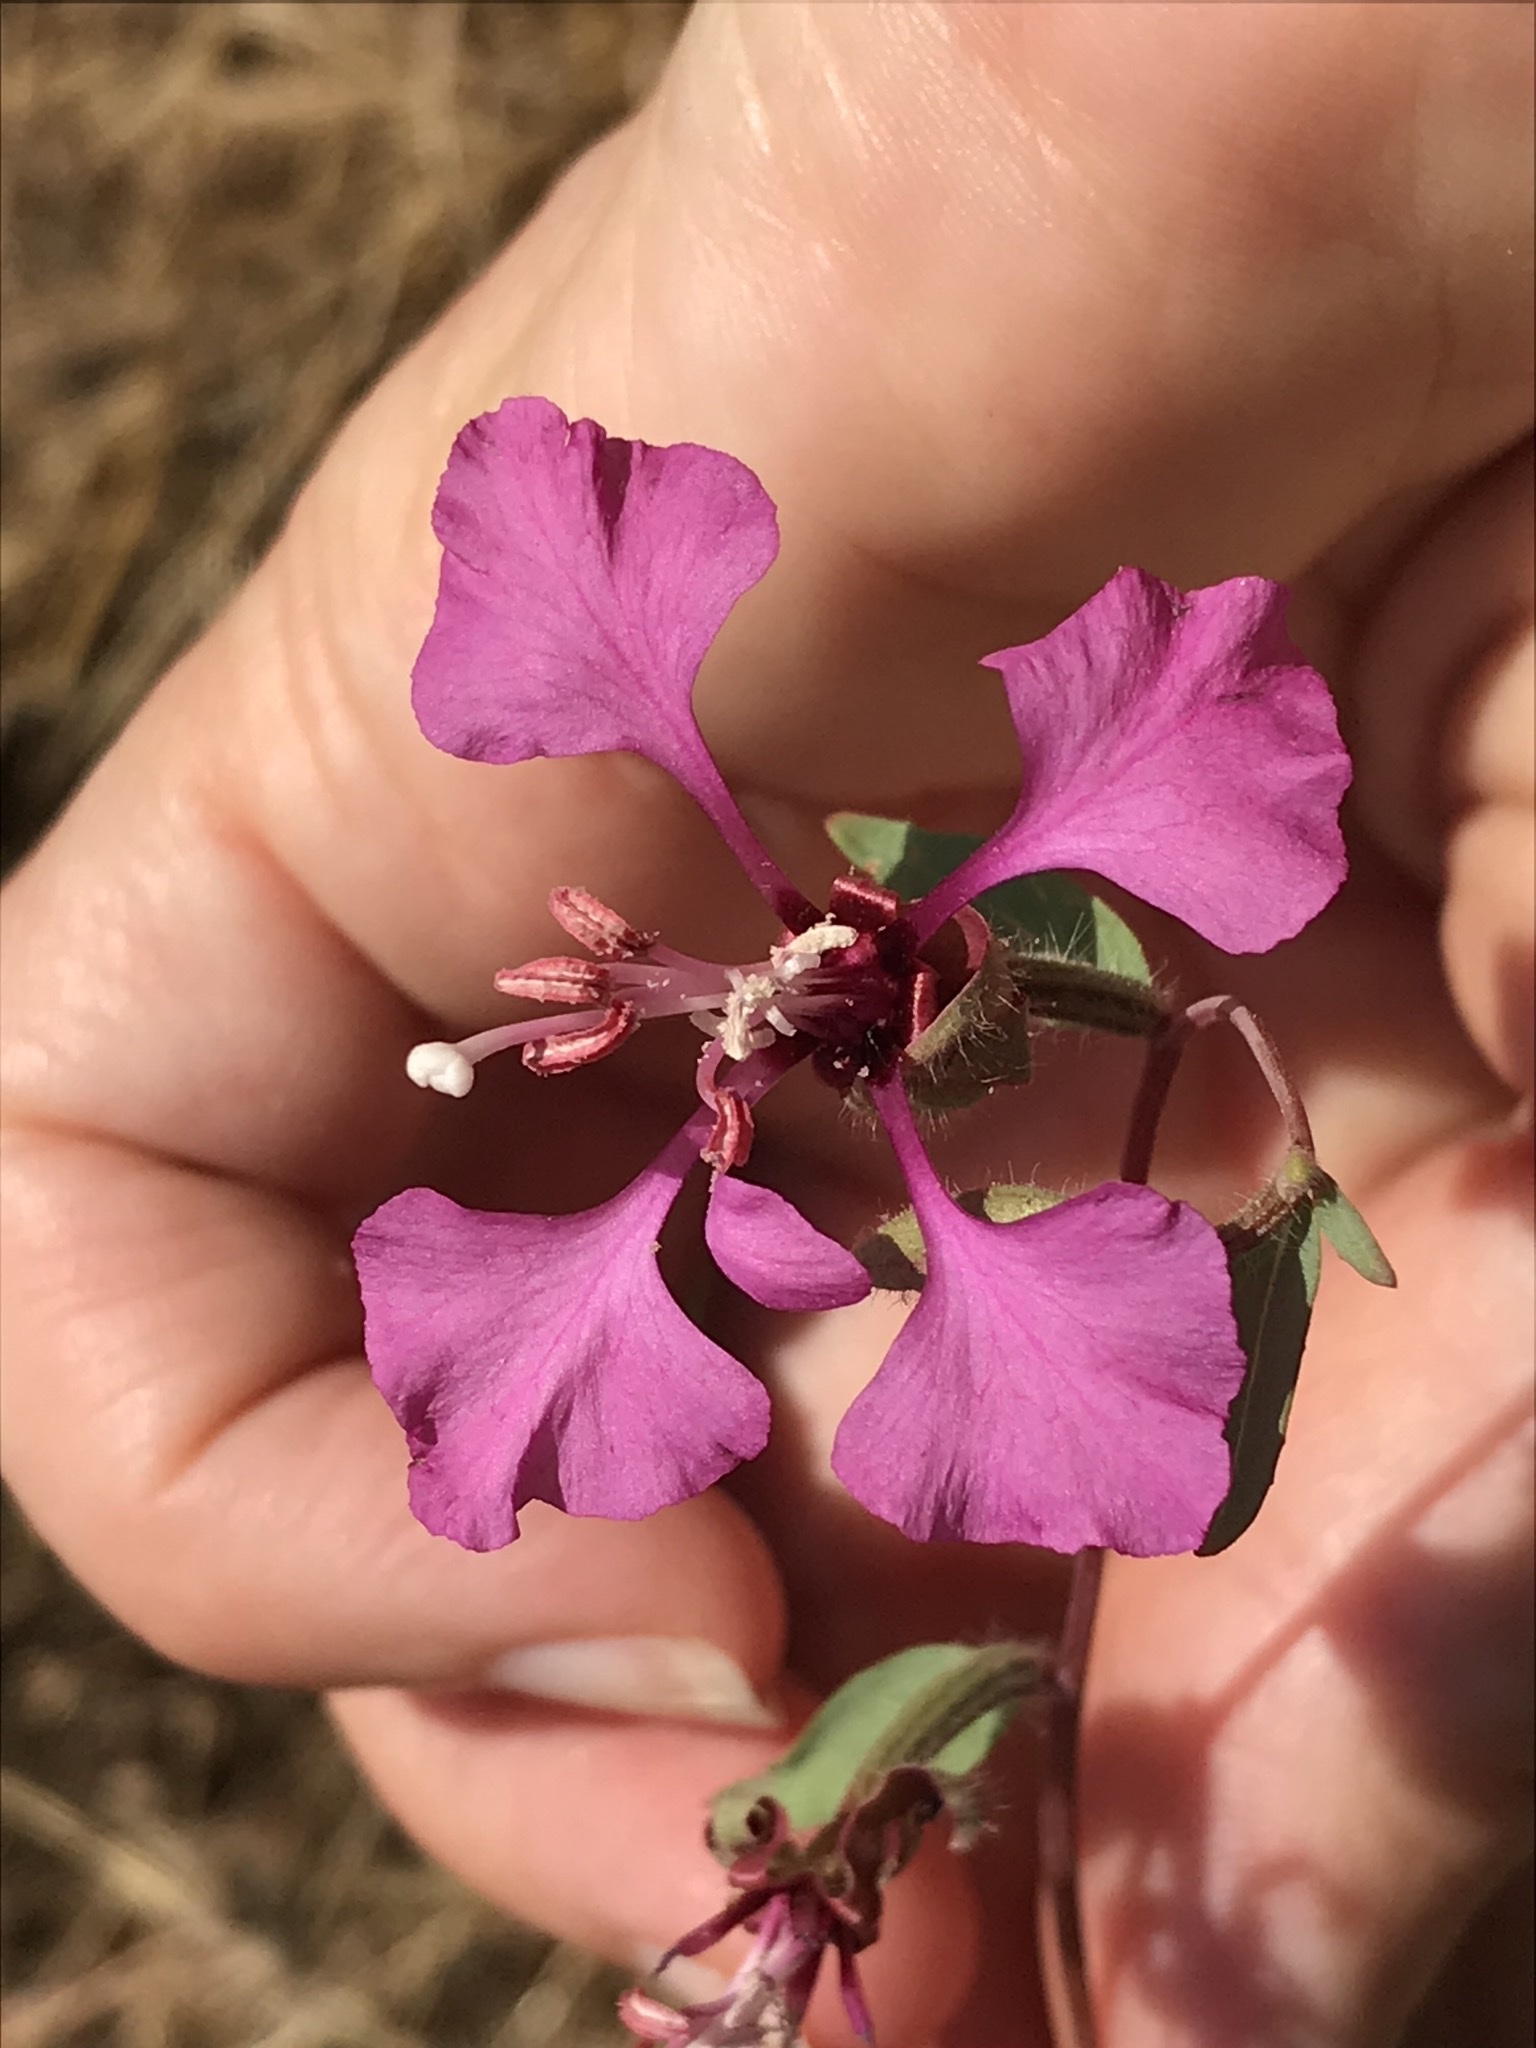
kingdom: Plantae
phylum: Tracheophyta
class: Magnoliopsida
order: Myrtales
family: Onagraceae
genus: Clarkia
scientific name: Clarkia unguiculata
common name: Clarkia
